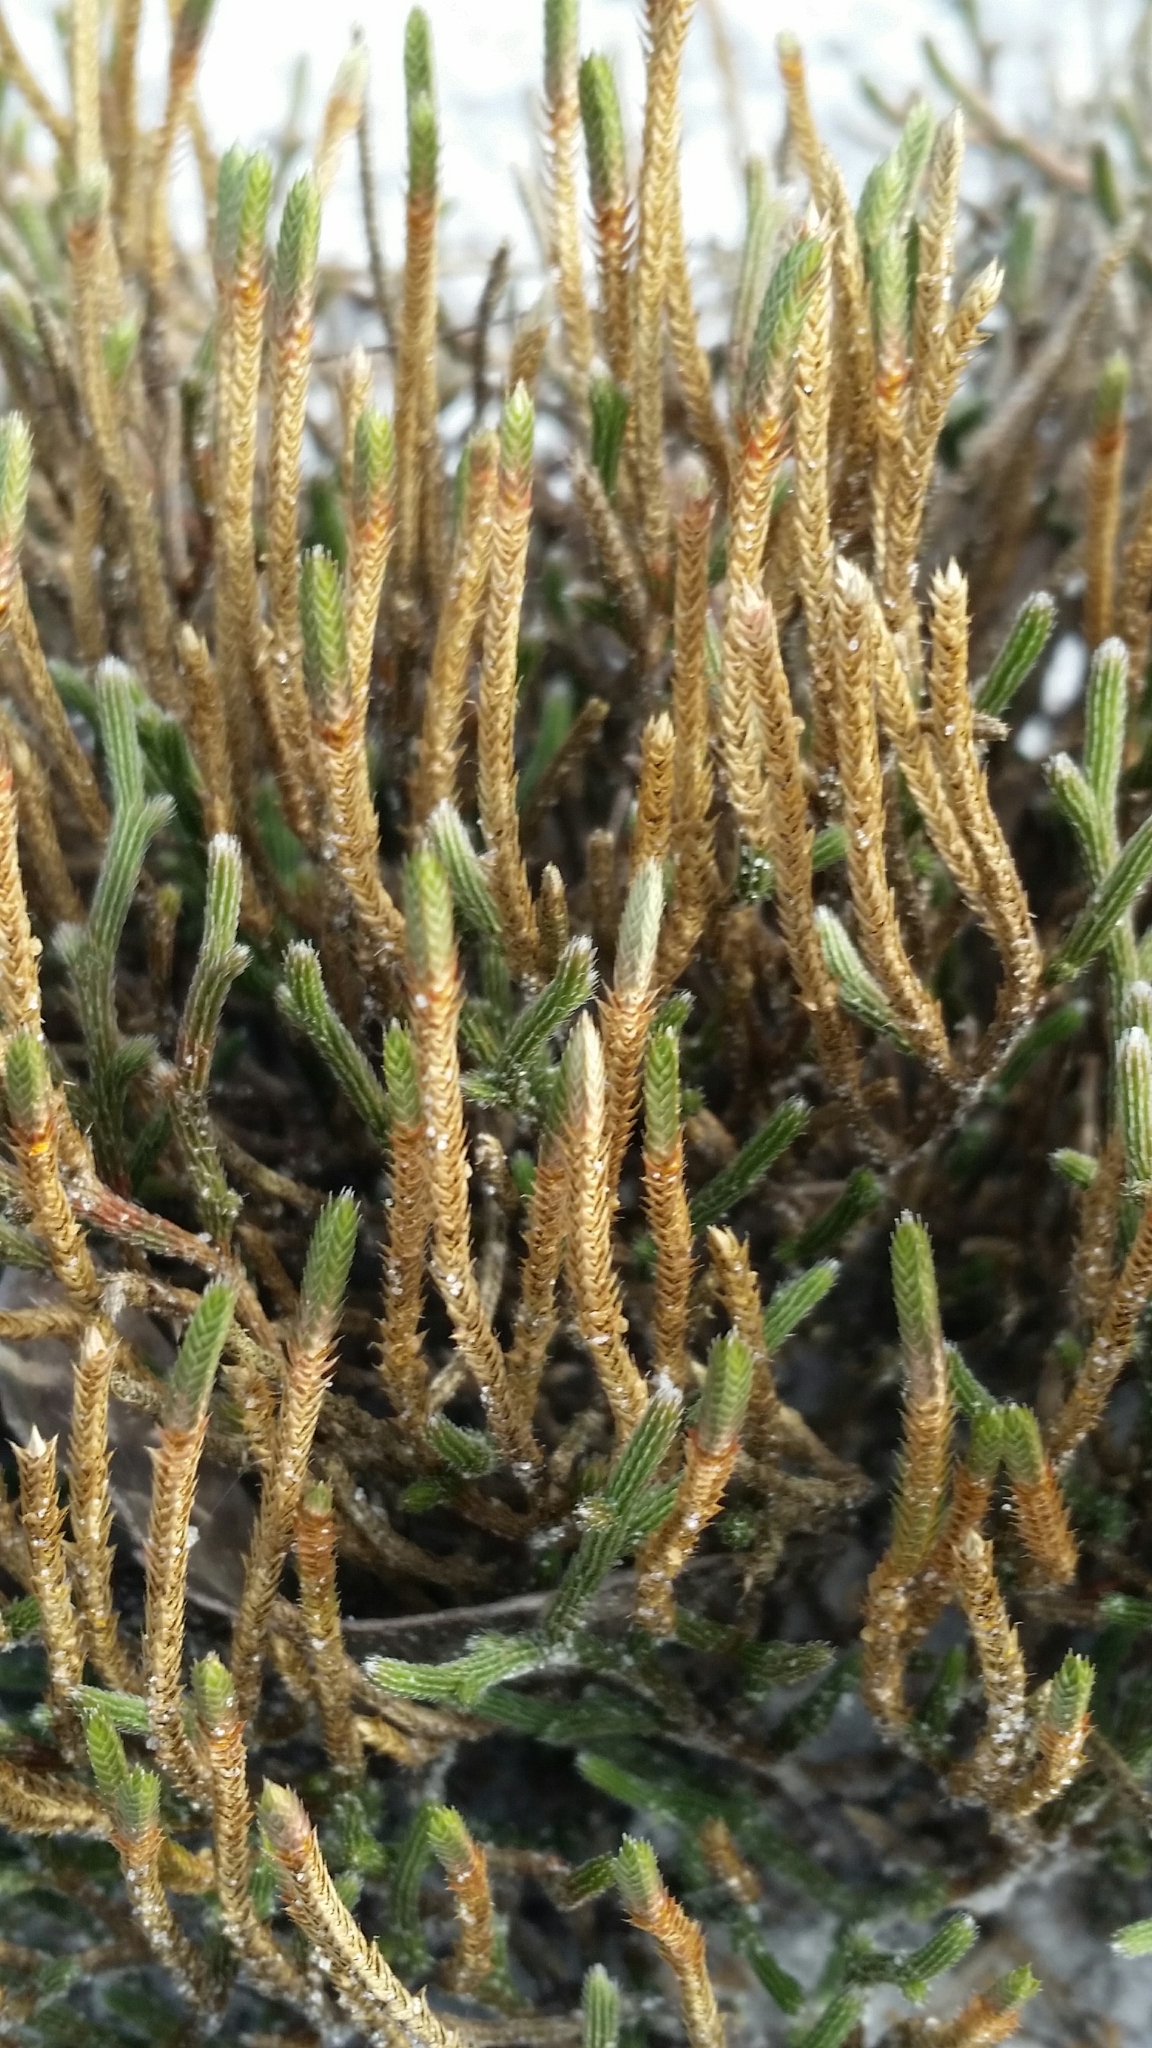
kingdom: Plantae
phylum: Tracheophyta
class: Lycopodiopsida
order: Selaginellales
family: Selaginellaceae
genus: Selaginella
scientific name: Selaginella arenicola
